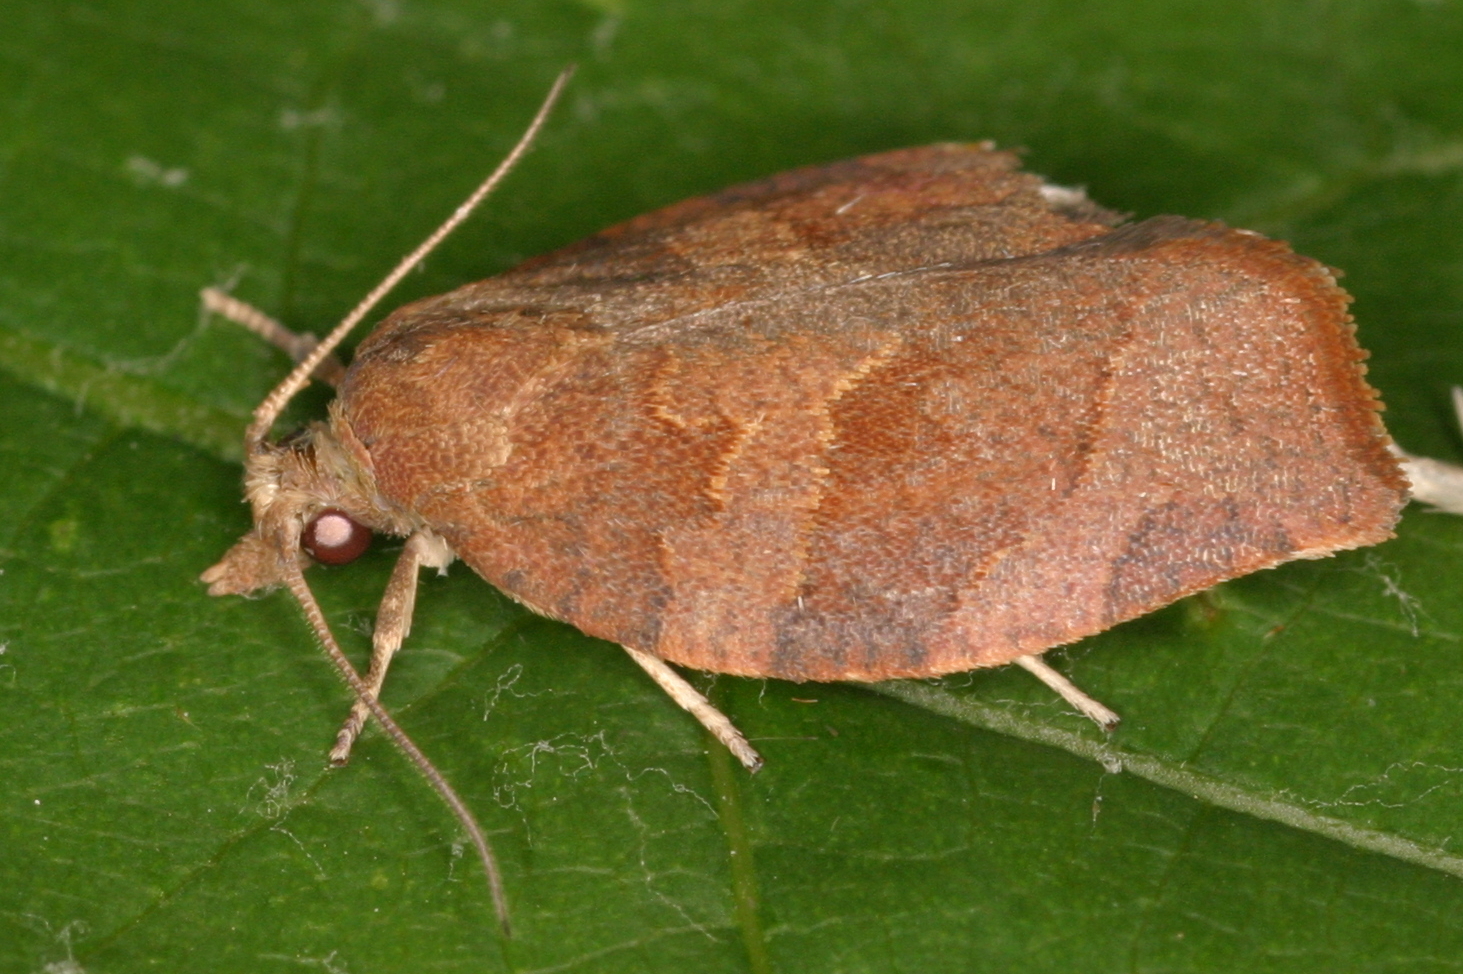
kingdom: Animalia
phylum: Arthropoda
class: Insecta
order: Lepidoptera
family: Tortricidae
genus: Pandemis
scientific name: Pandemis heparana
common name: Dark fruit-tree tortrix
